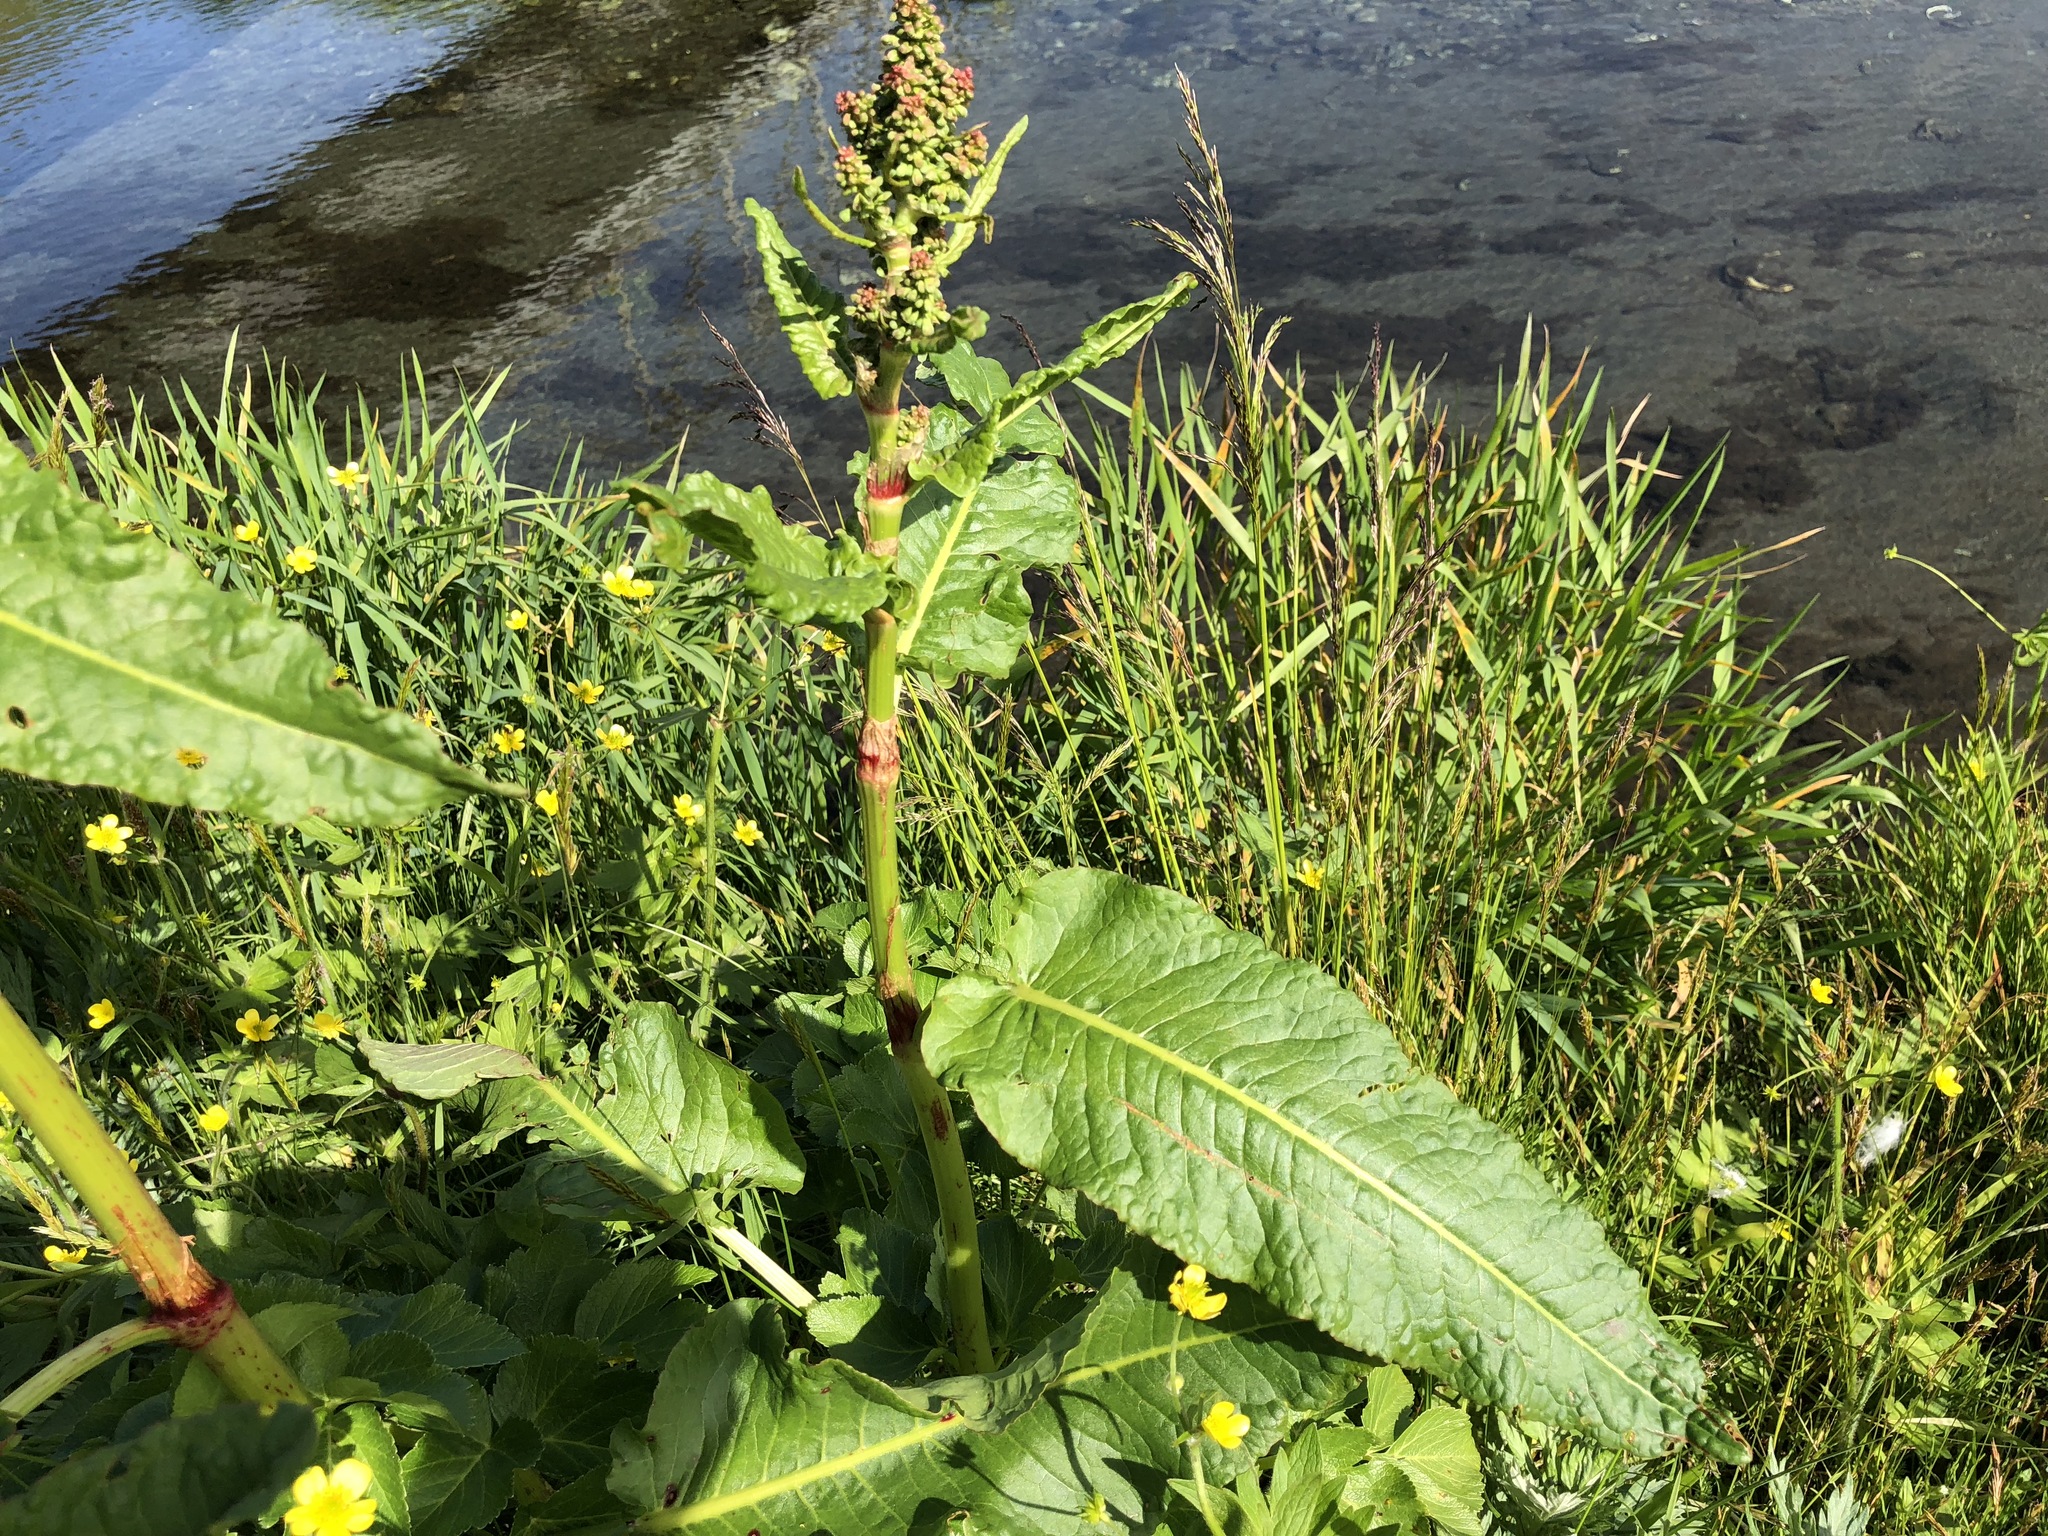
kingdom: Plantae
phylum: Tracheophyta
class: Magnoliopsida
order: Caryophyllales
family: Polygonaceae
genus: Rumex
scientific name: Rumex obtusifolius
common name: Bitter dock
